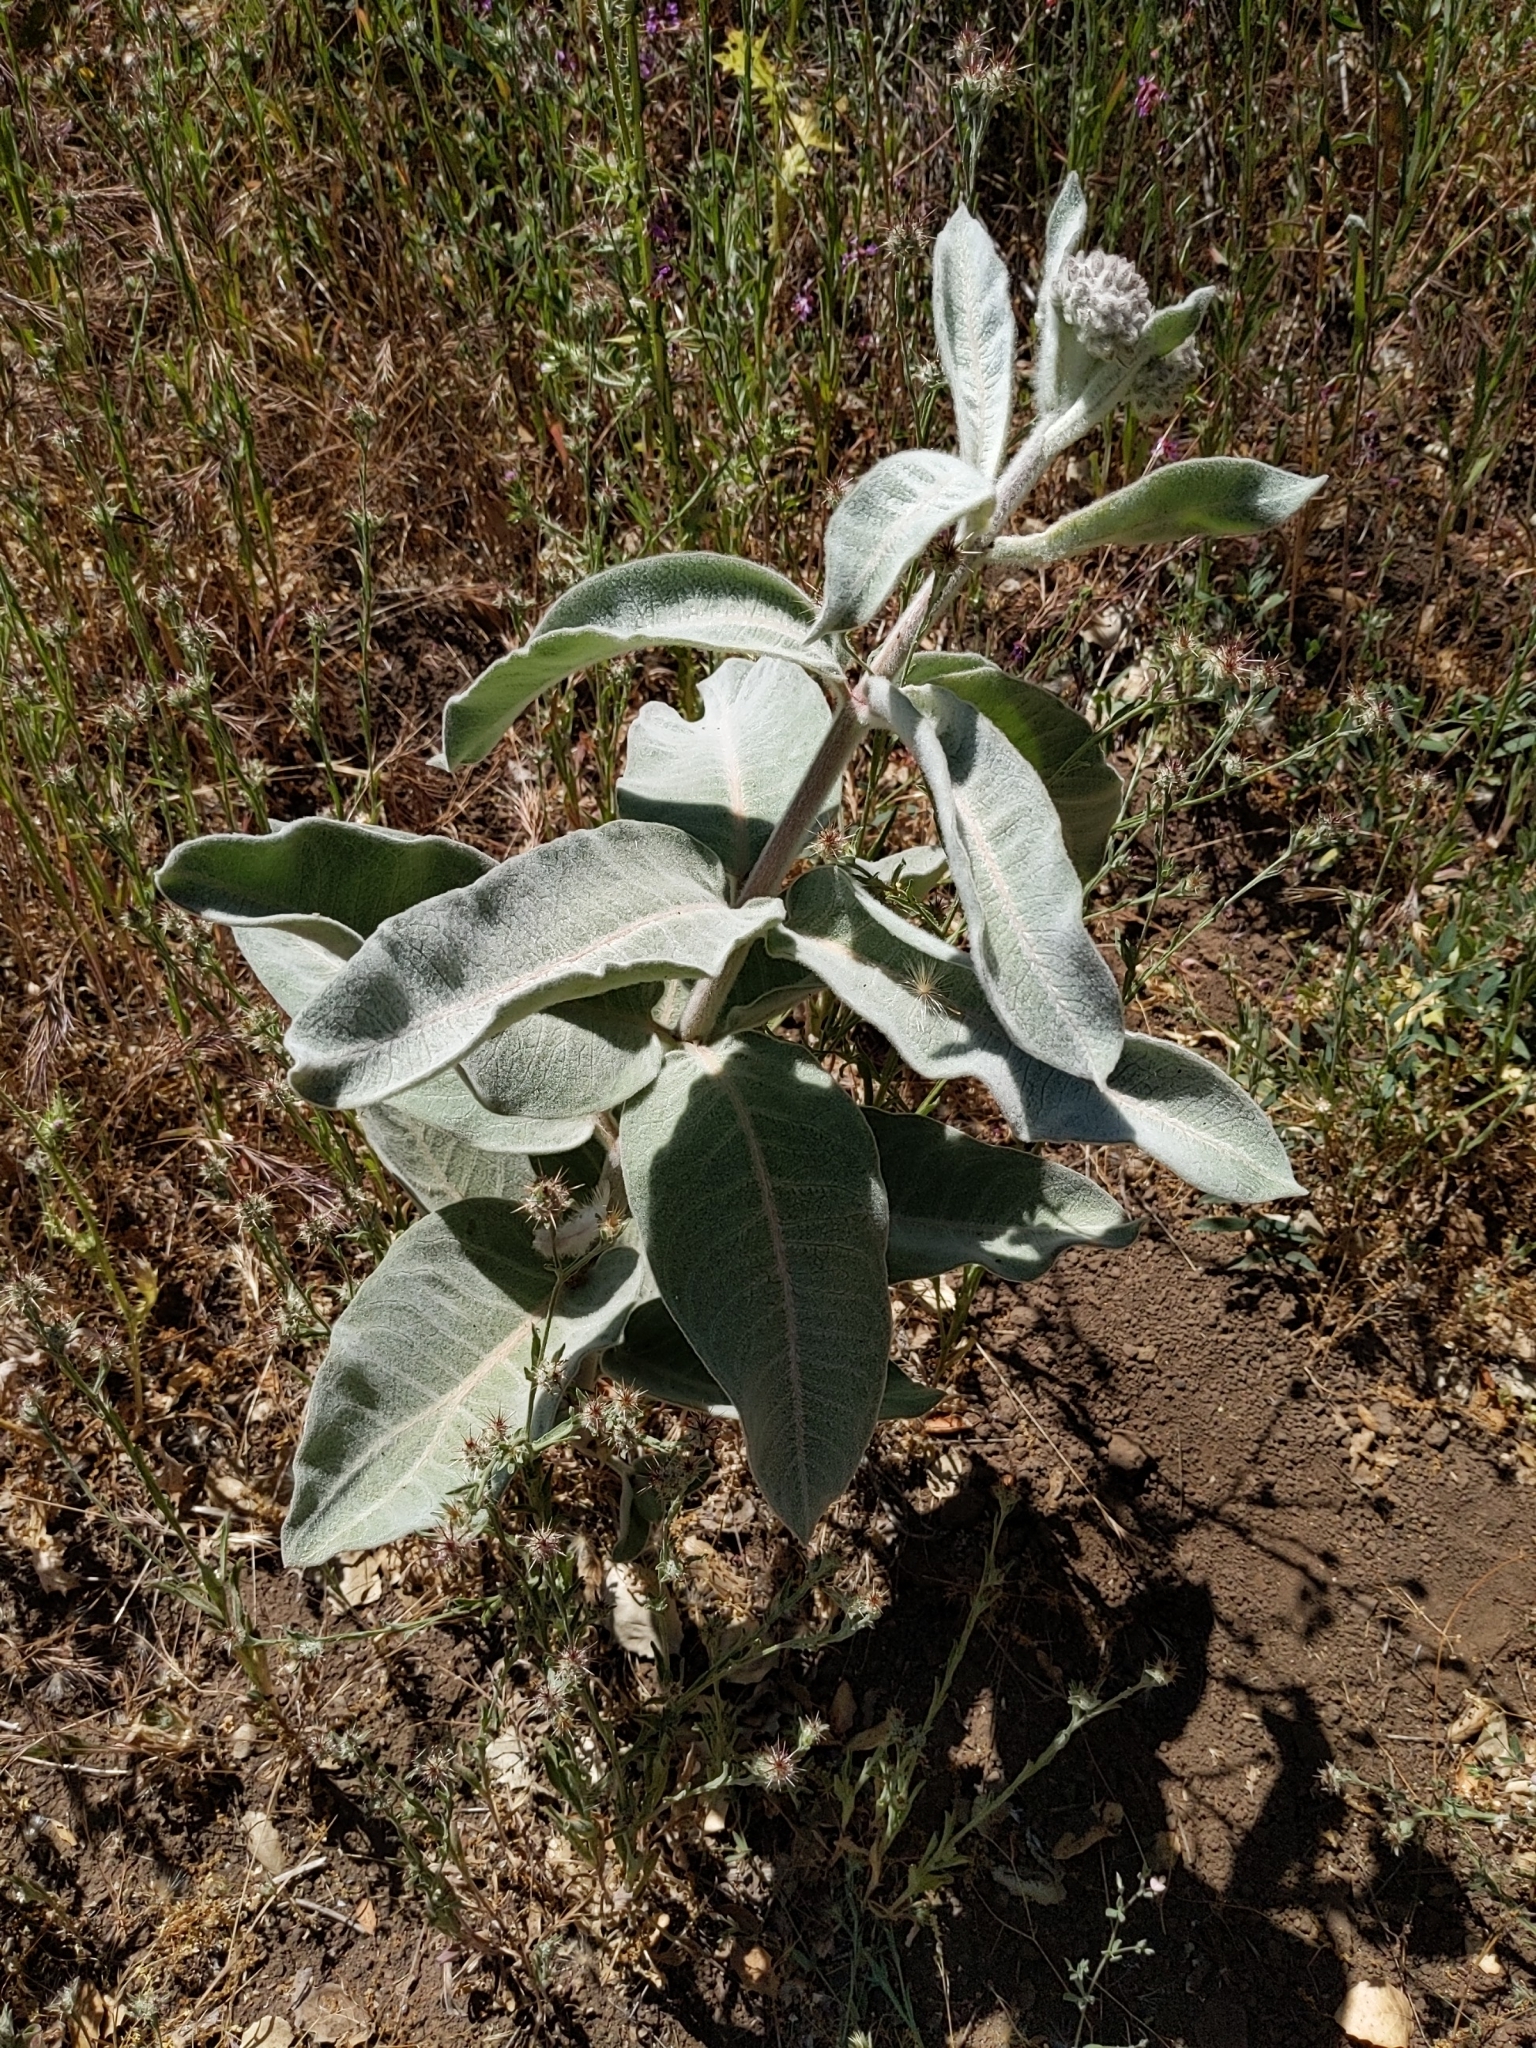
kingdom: Plantae
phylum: Tracheophyta
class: Magnoliopsida
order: Gentianales
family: Apocynaceae
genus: Asclepias
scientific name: Asclepias eriocarpa
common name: Indian milkweed
